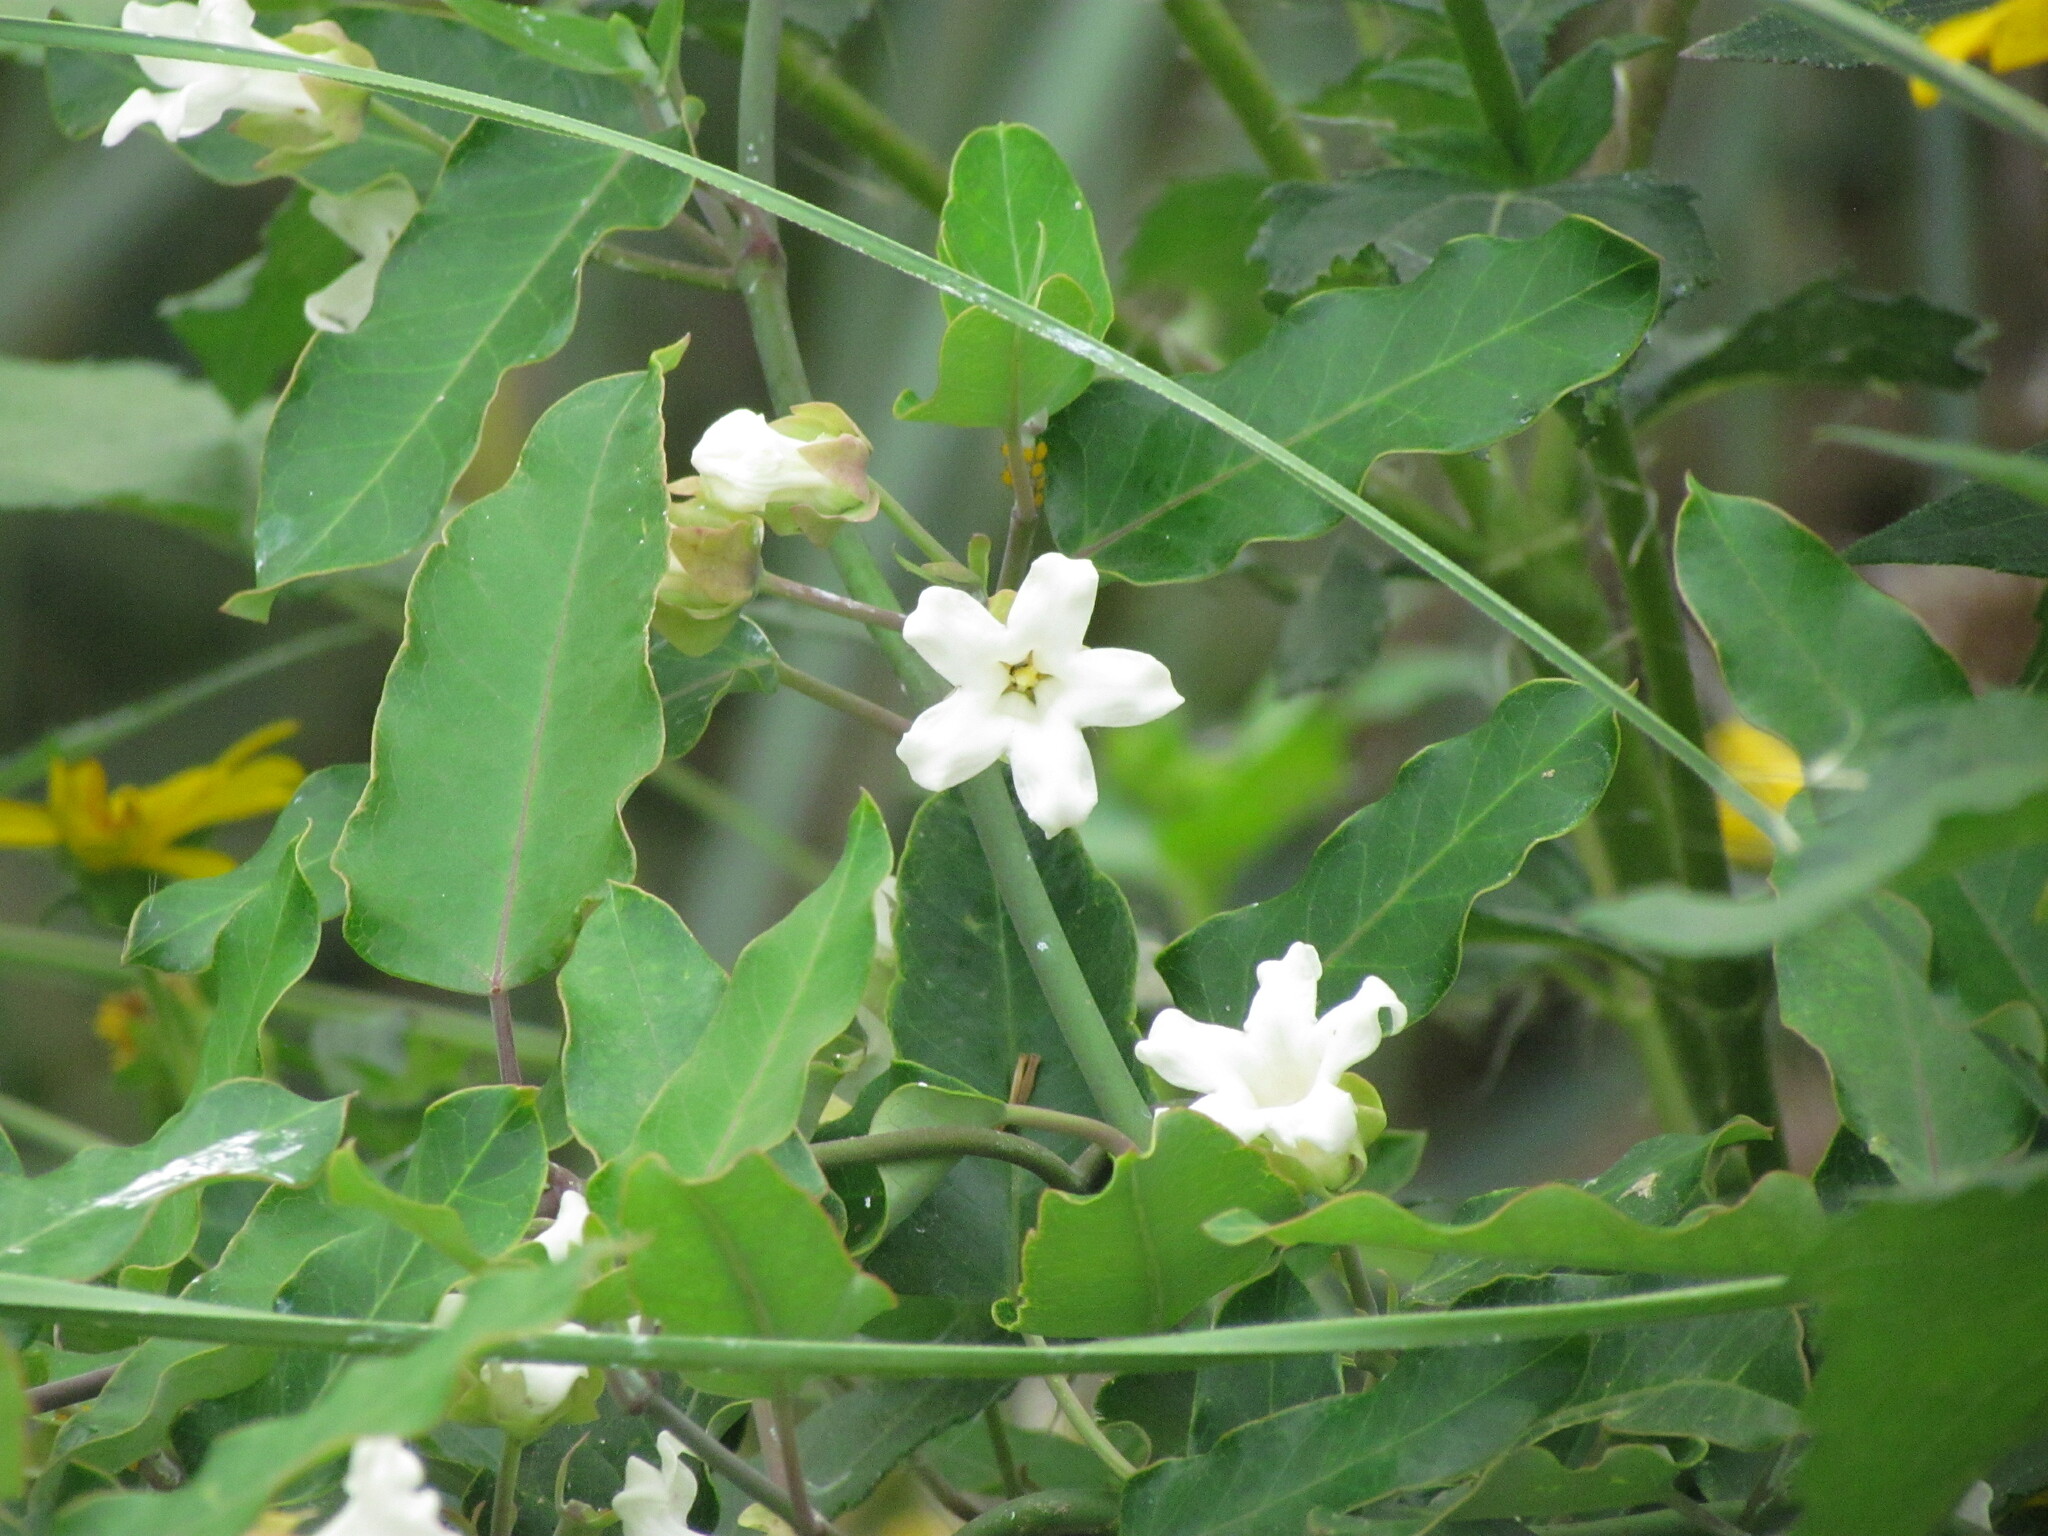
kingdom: Plantae
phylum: Tracheophyta
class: Magnoliopsida
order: Gentianales
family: Apocynaceae
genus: Araujia
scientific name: Araujia sericifera
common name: White bladderflower
